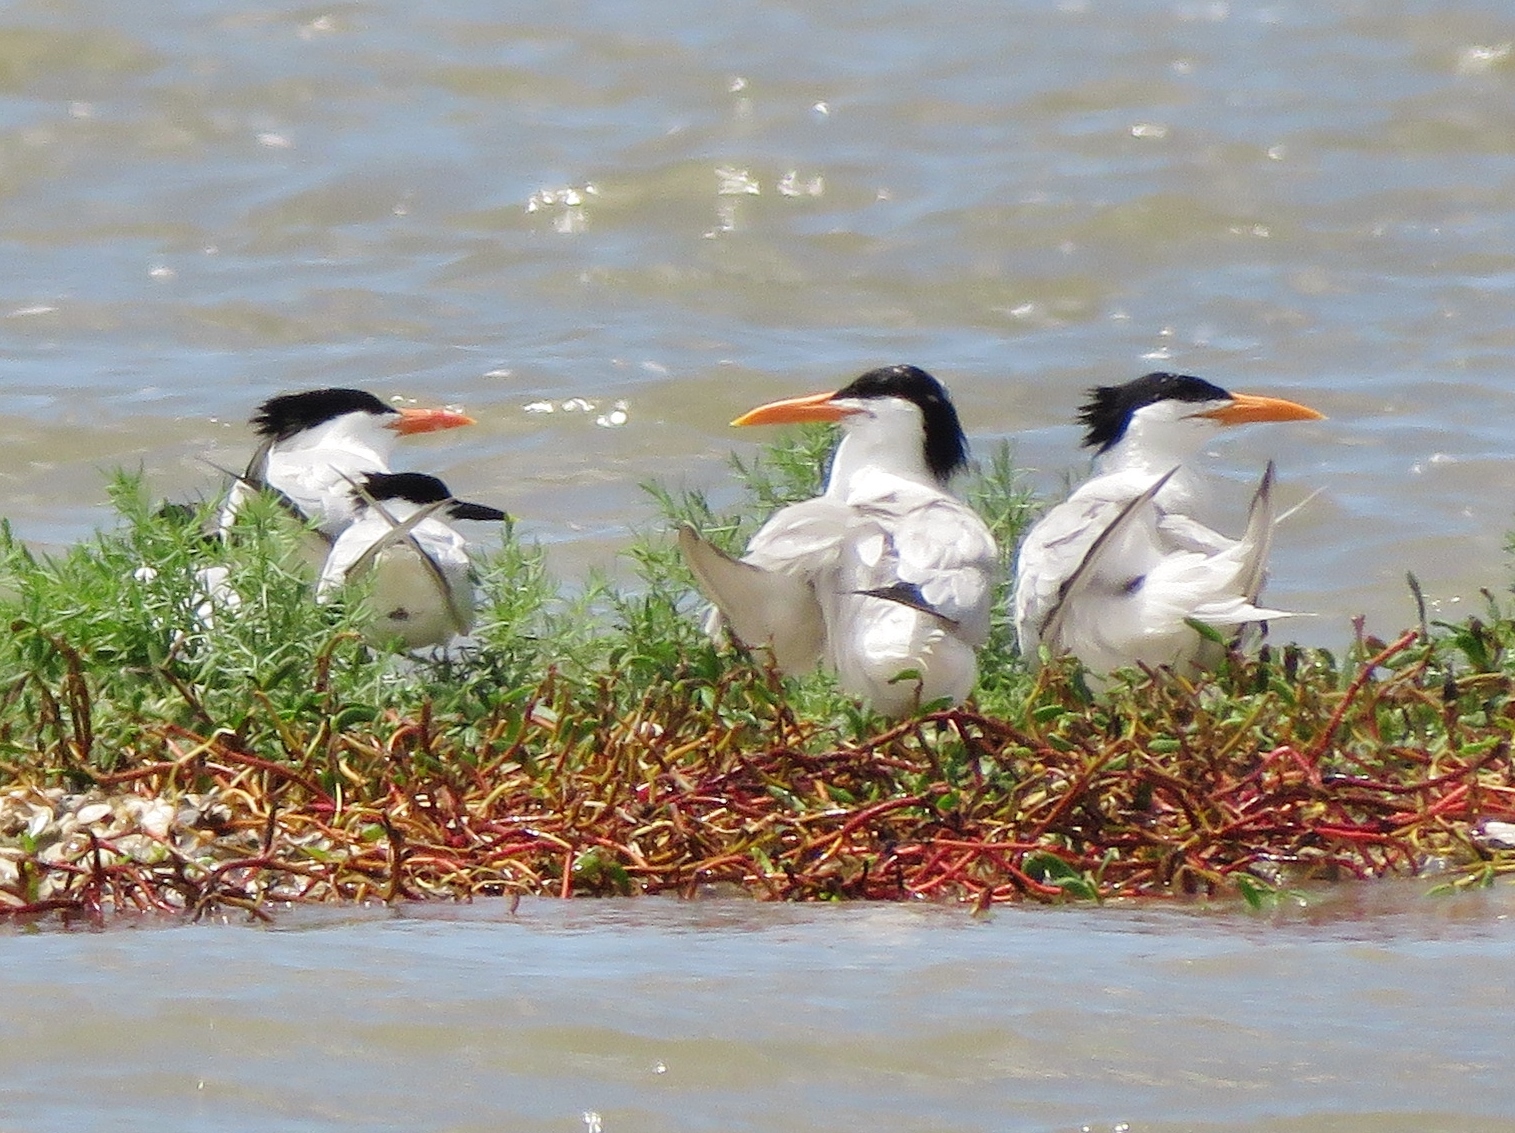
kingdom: Animalia
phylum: Chordata
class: Aves
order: Charadriiformes
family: Laridae
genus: Thalasseus
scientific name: Thalasseus maximus
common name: Royal tern
